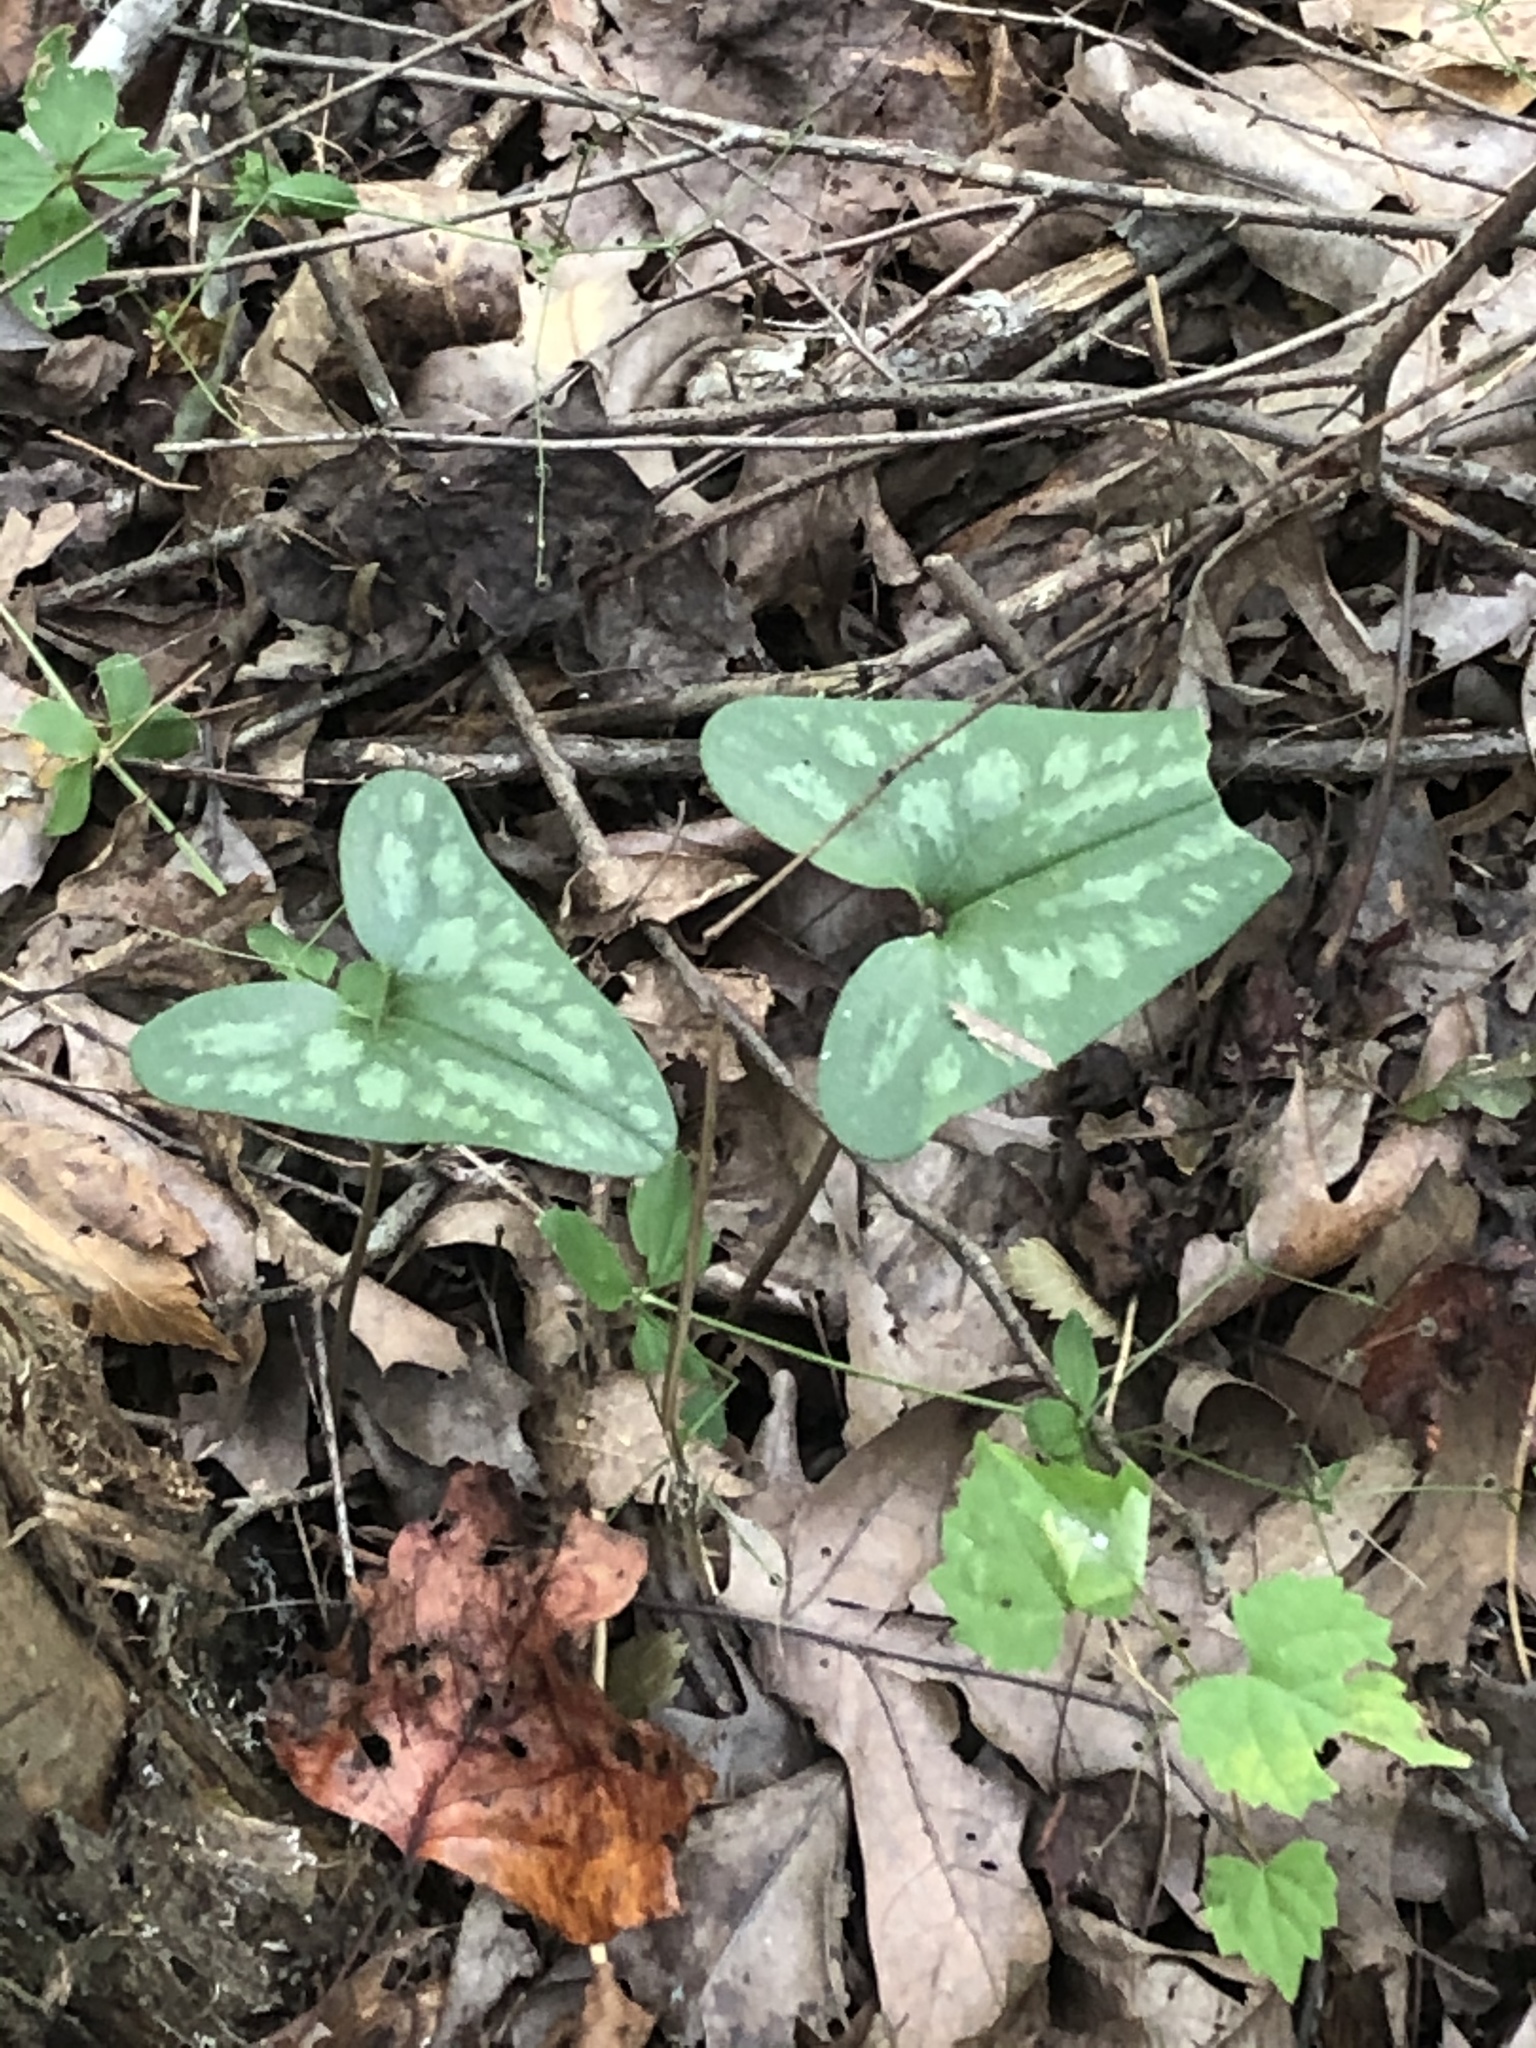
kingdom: Plantae
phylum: Tracheophyta
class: Magnoliopsida
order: Piperales
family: Aristolochiaceae
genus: Hexastylis
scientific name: Hexastylis arifolia
